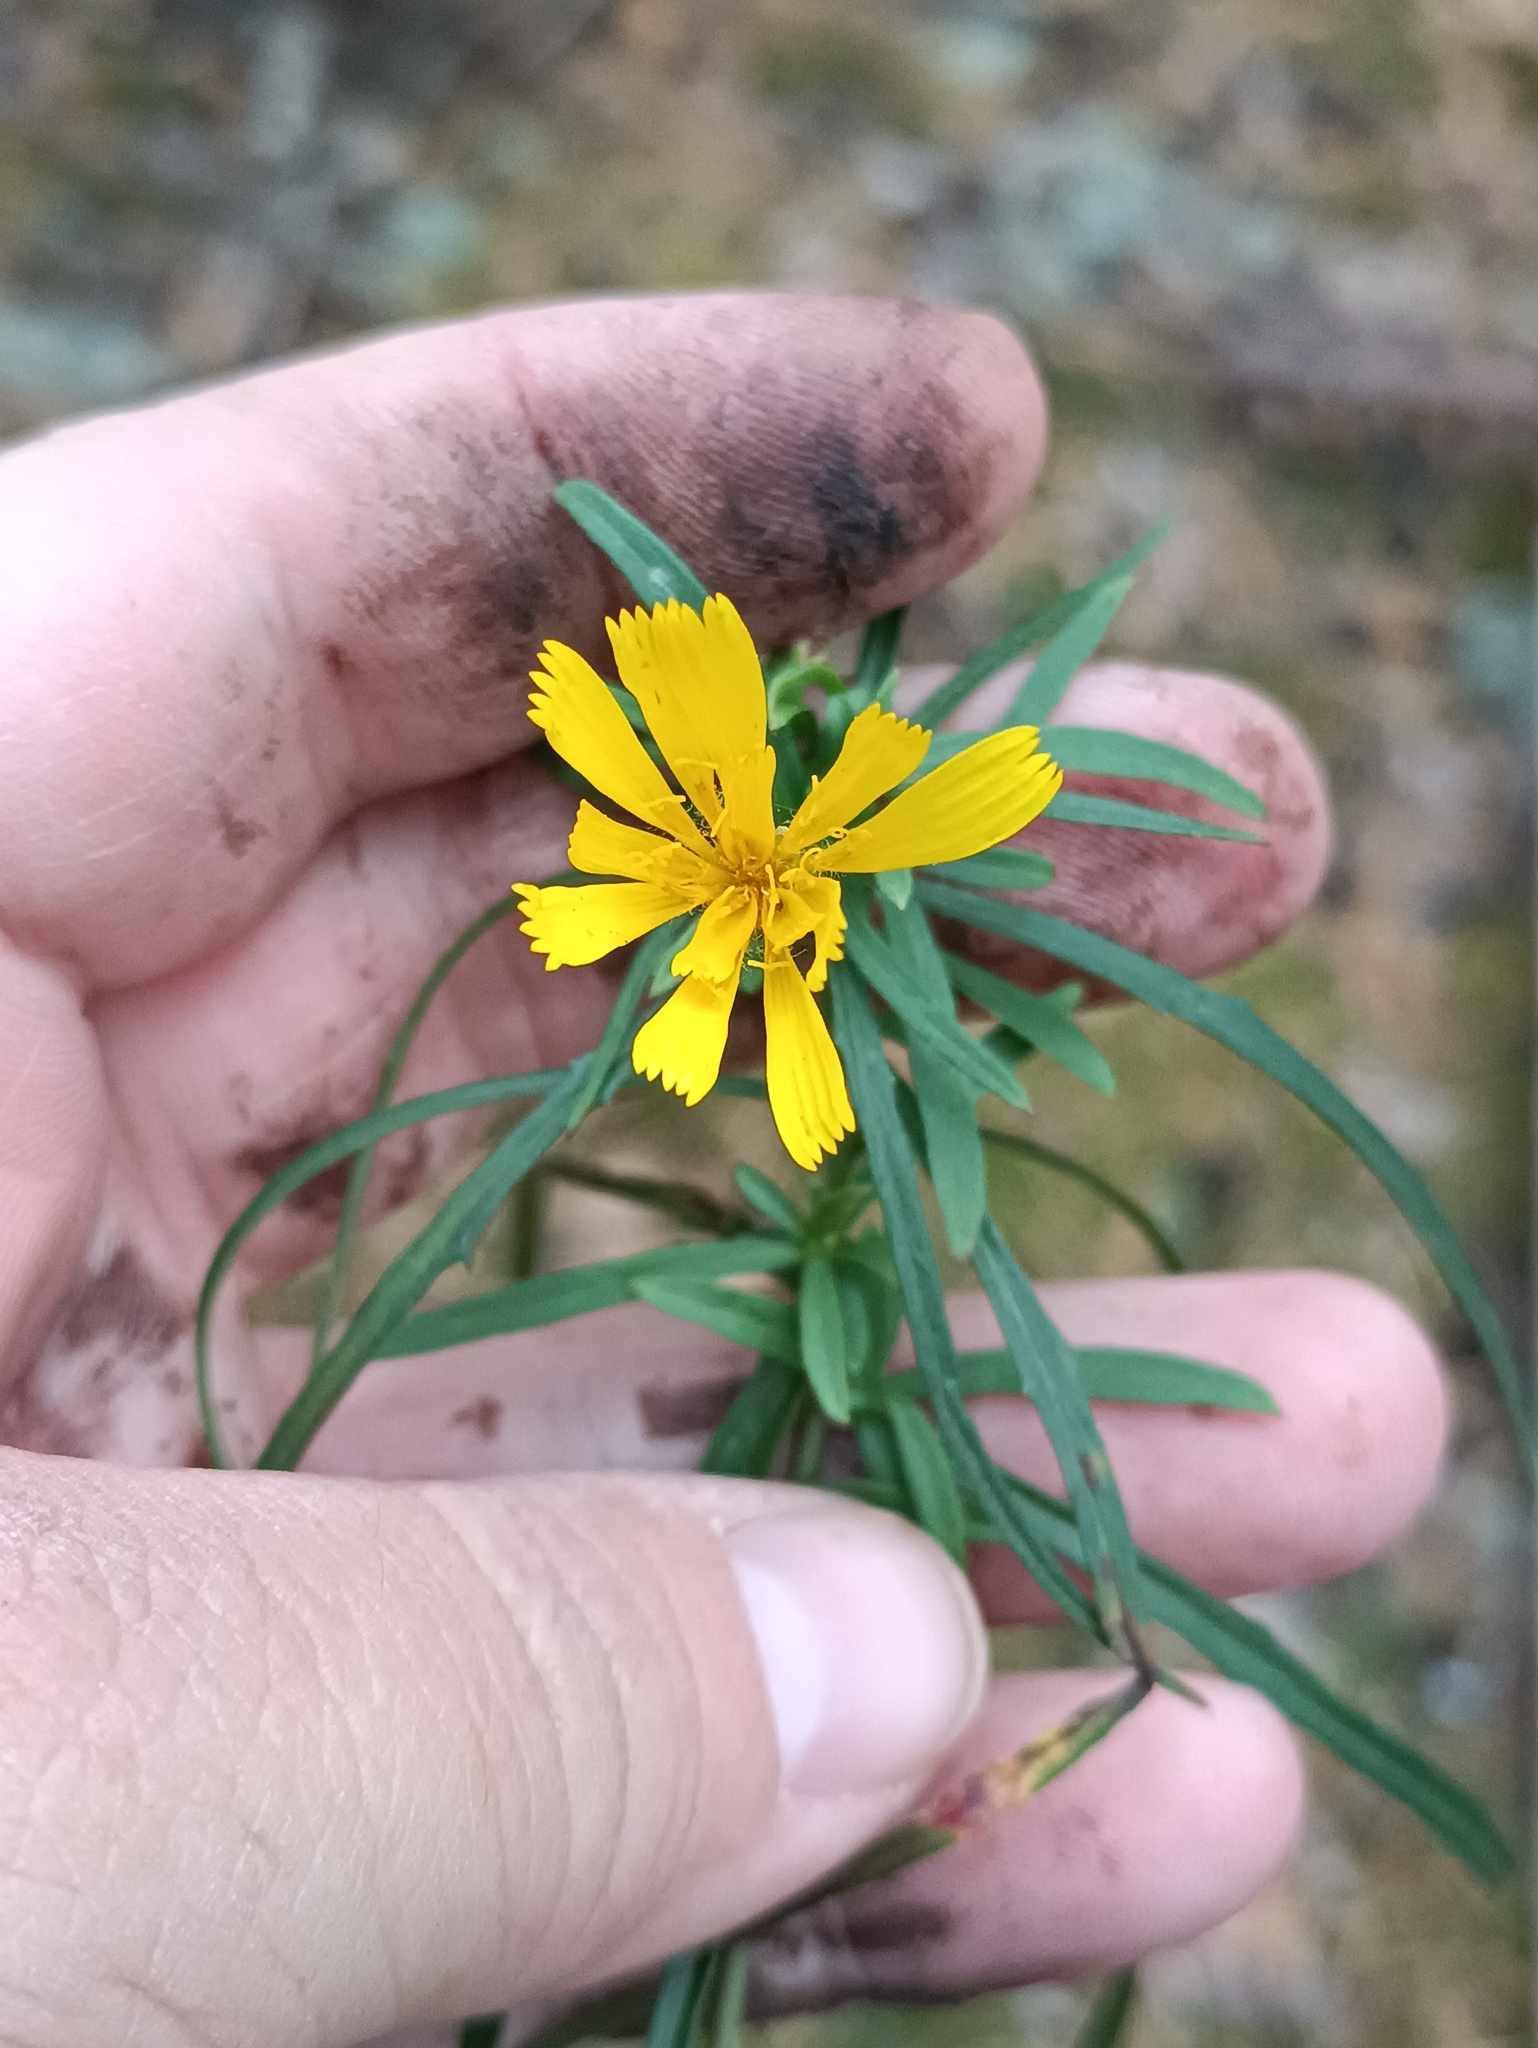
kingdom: Plantae
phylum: Tracheophyta
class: Magnoliopsida
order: Asterales
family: Asteraceae
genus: Hieracium
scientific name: Hieracium umbellatum
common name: Northern hawkweed
